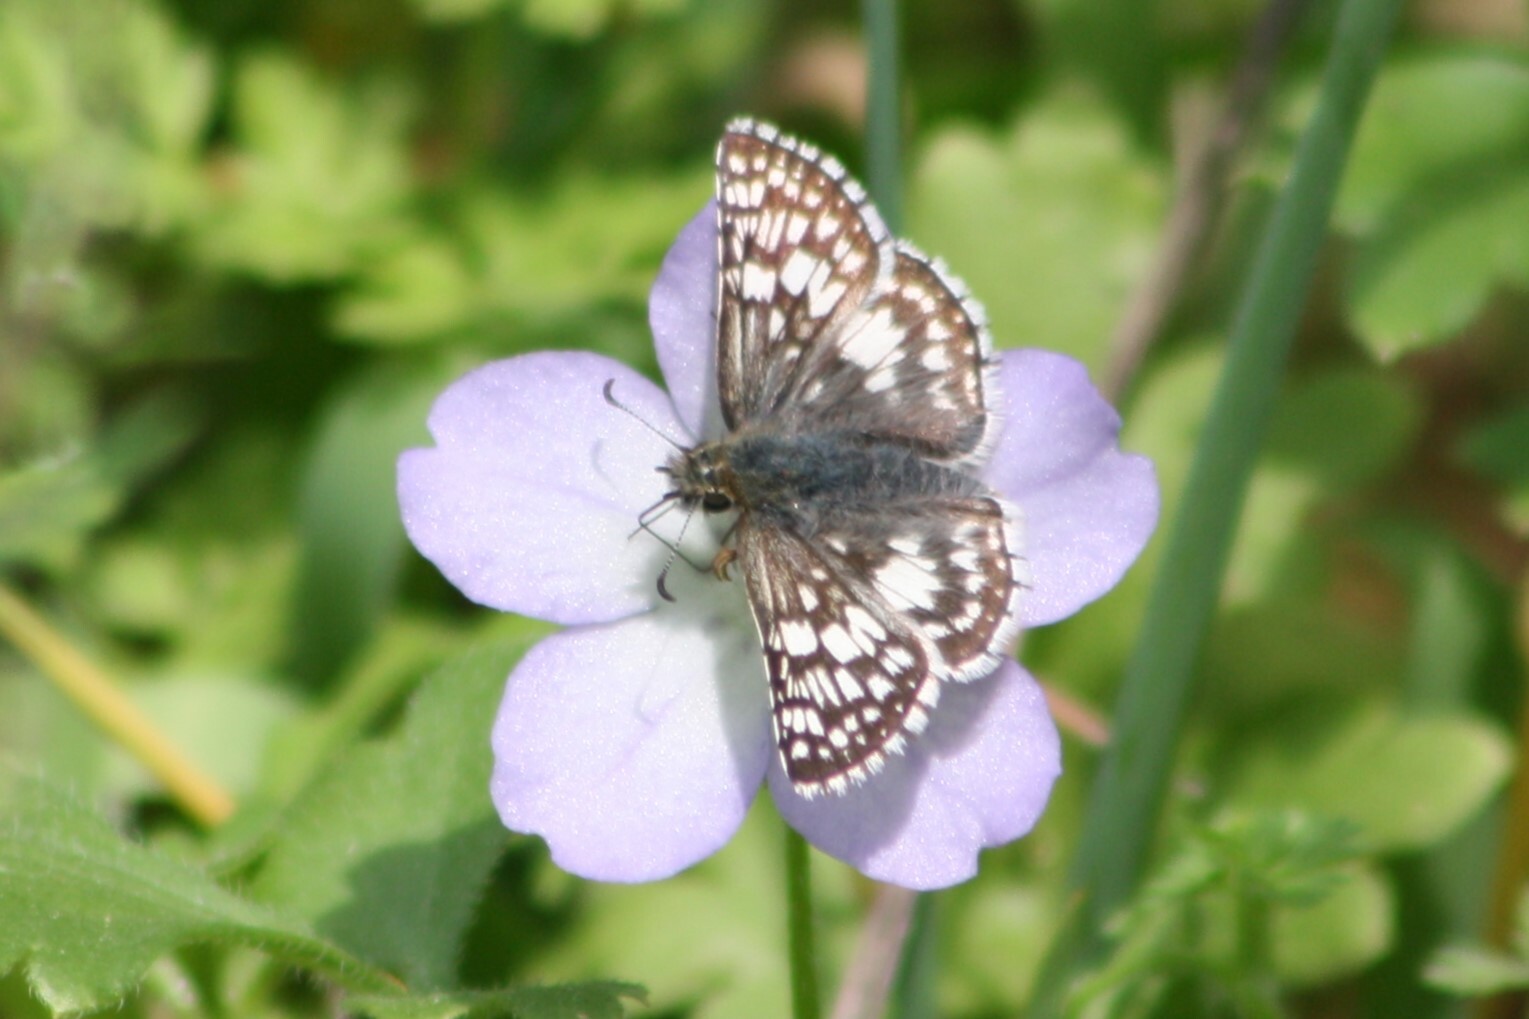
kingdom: Animalia
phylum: Arthropoda
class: Insecta
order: Lepidoptera
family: Hesperiidae
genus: Burnsius
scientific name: Burnsius
